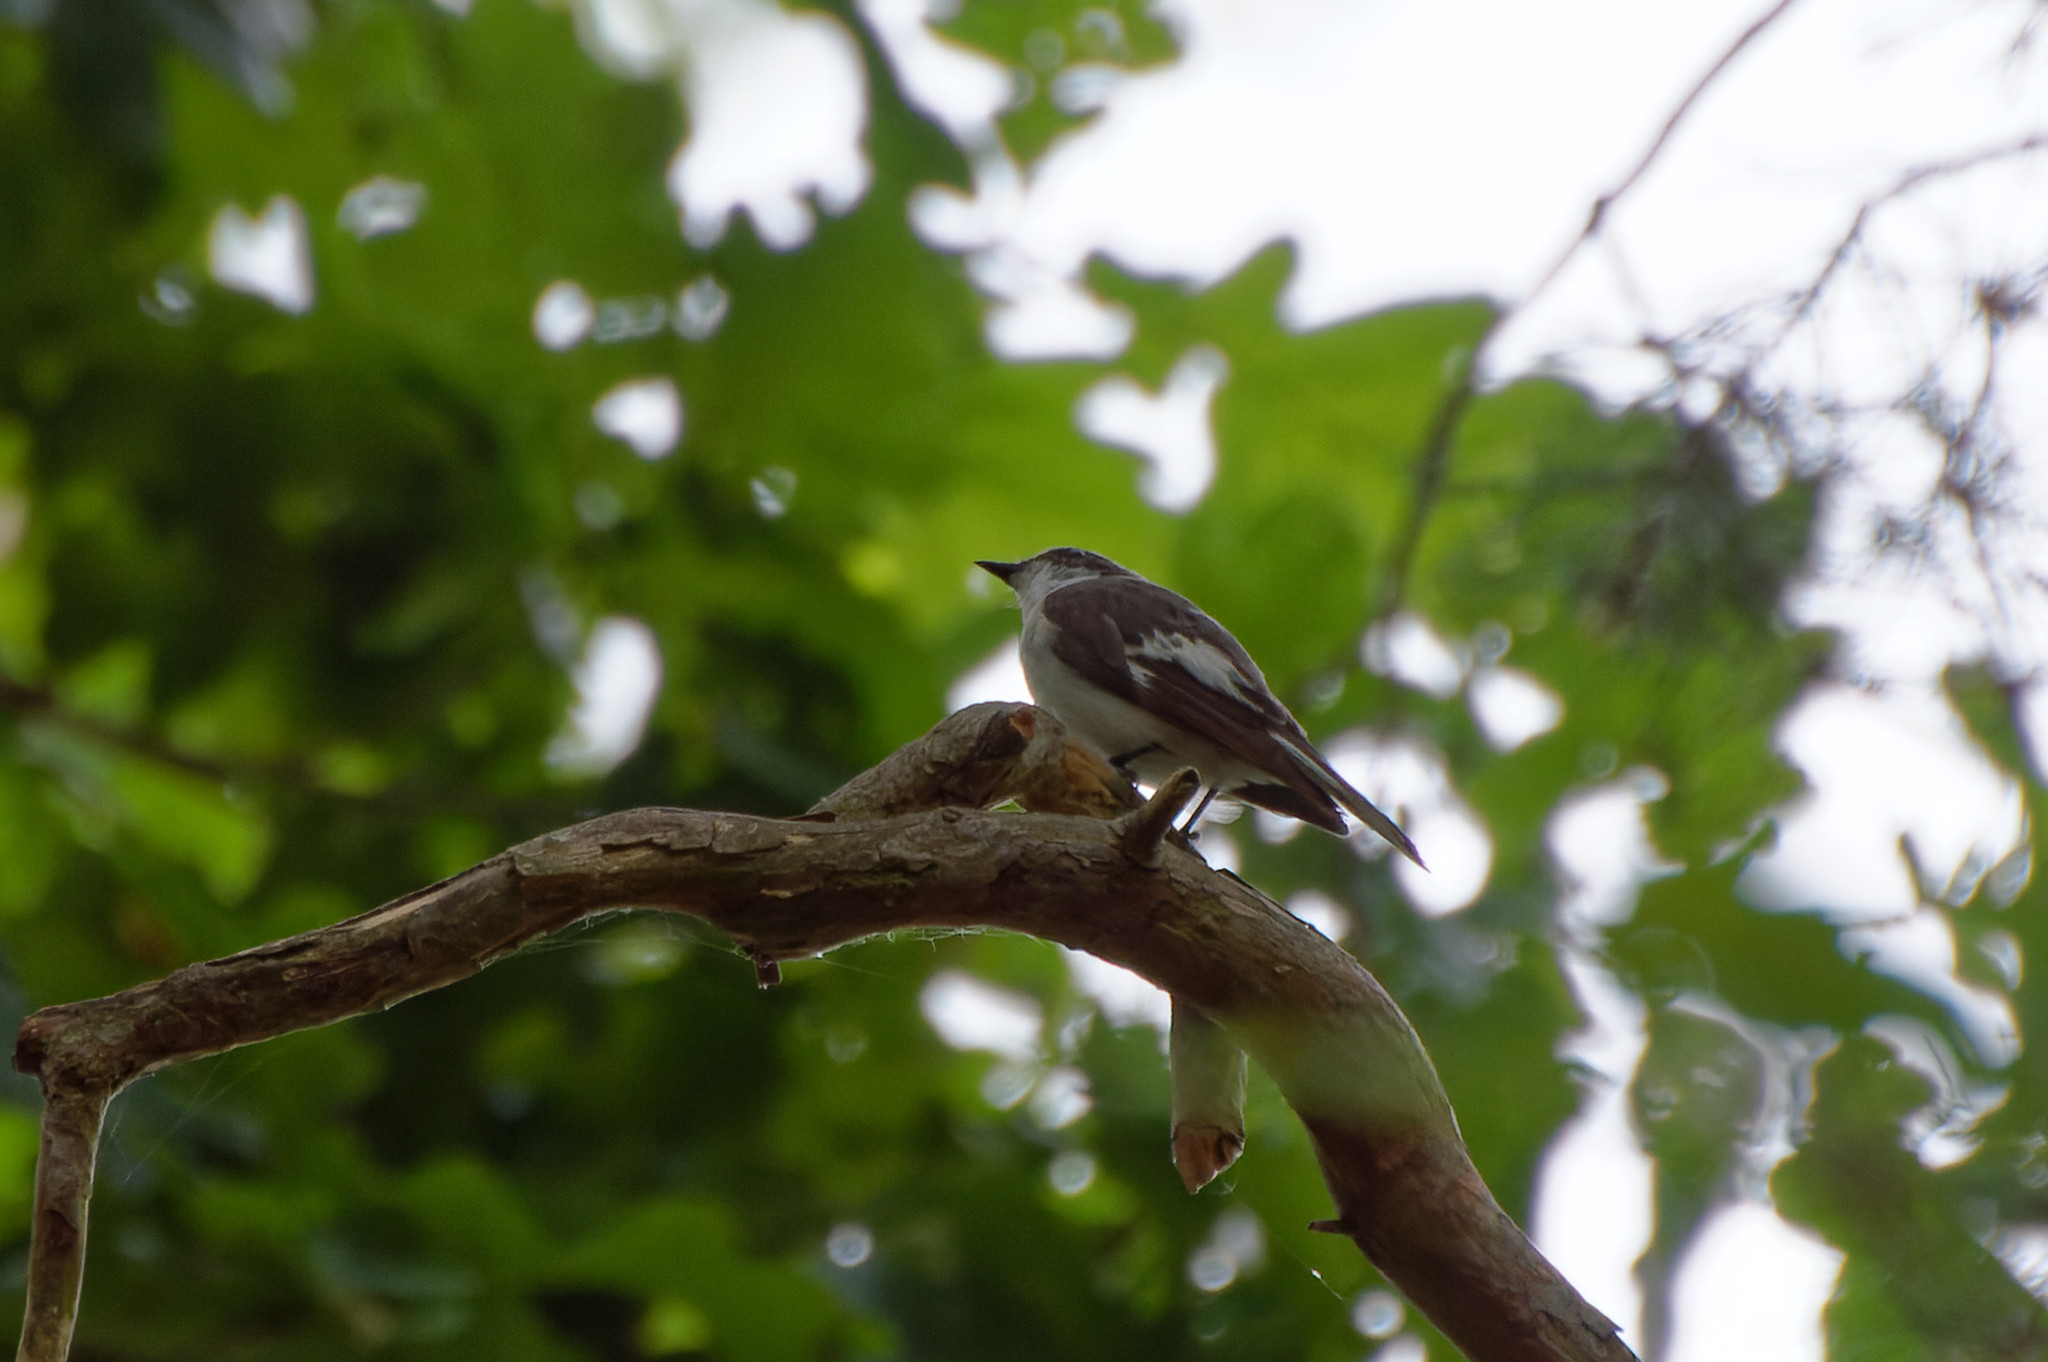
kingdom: Animalia
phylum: Chordata
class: Aves
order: Passeriformes
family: Muscicapidae
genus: Ficedula
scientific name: Ficedula hypoleuca
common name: European pied flycatcher
